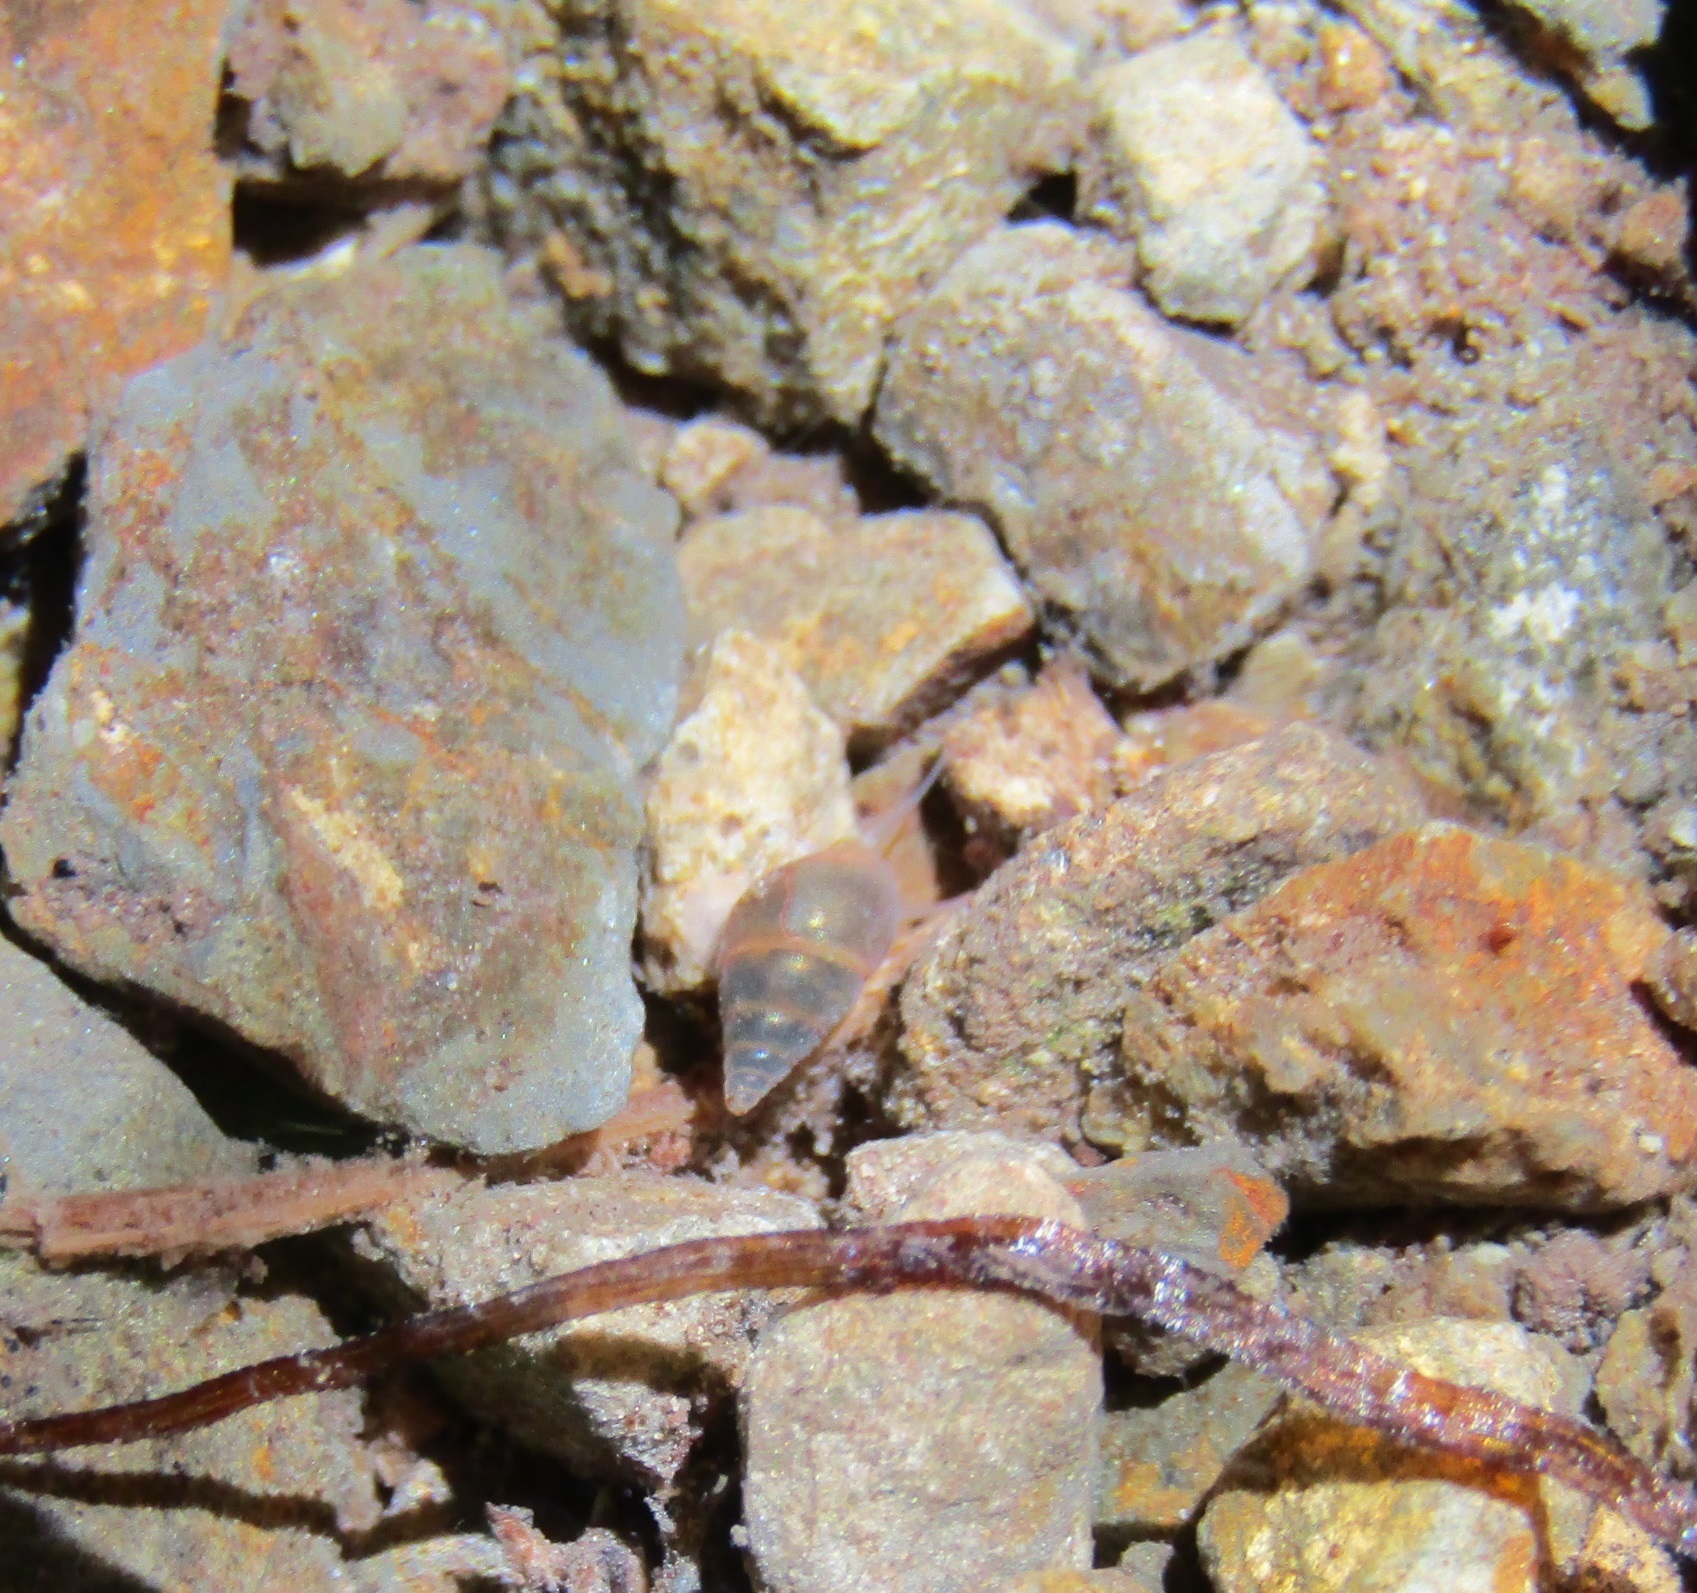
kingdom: Animalia
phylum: Mollusca
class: Gastropoda
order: Littorinimorpha
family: Tateidae
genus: Potamopyrgus
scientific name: Potamopyrgus antipodarum
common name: Jenkins' spire snail
